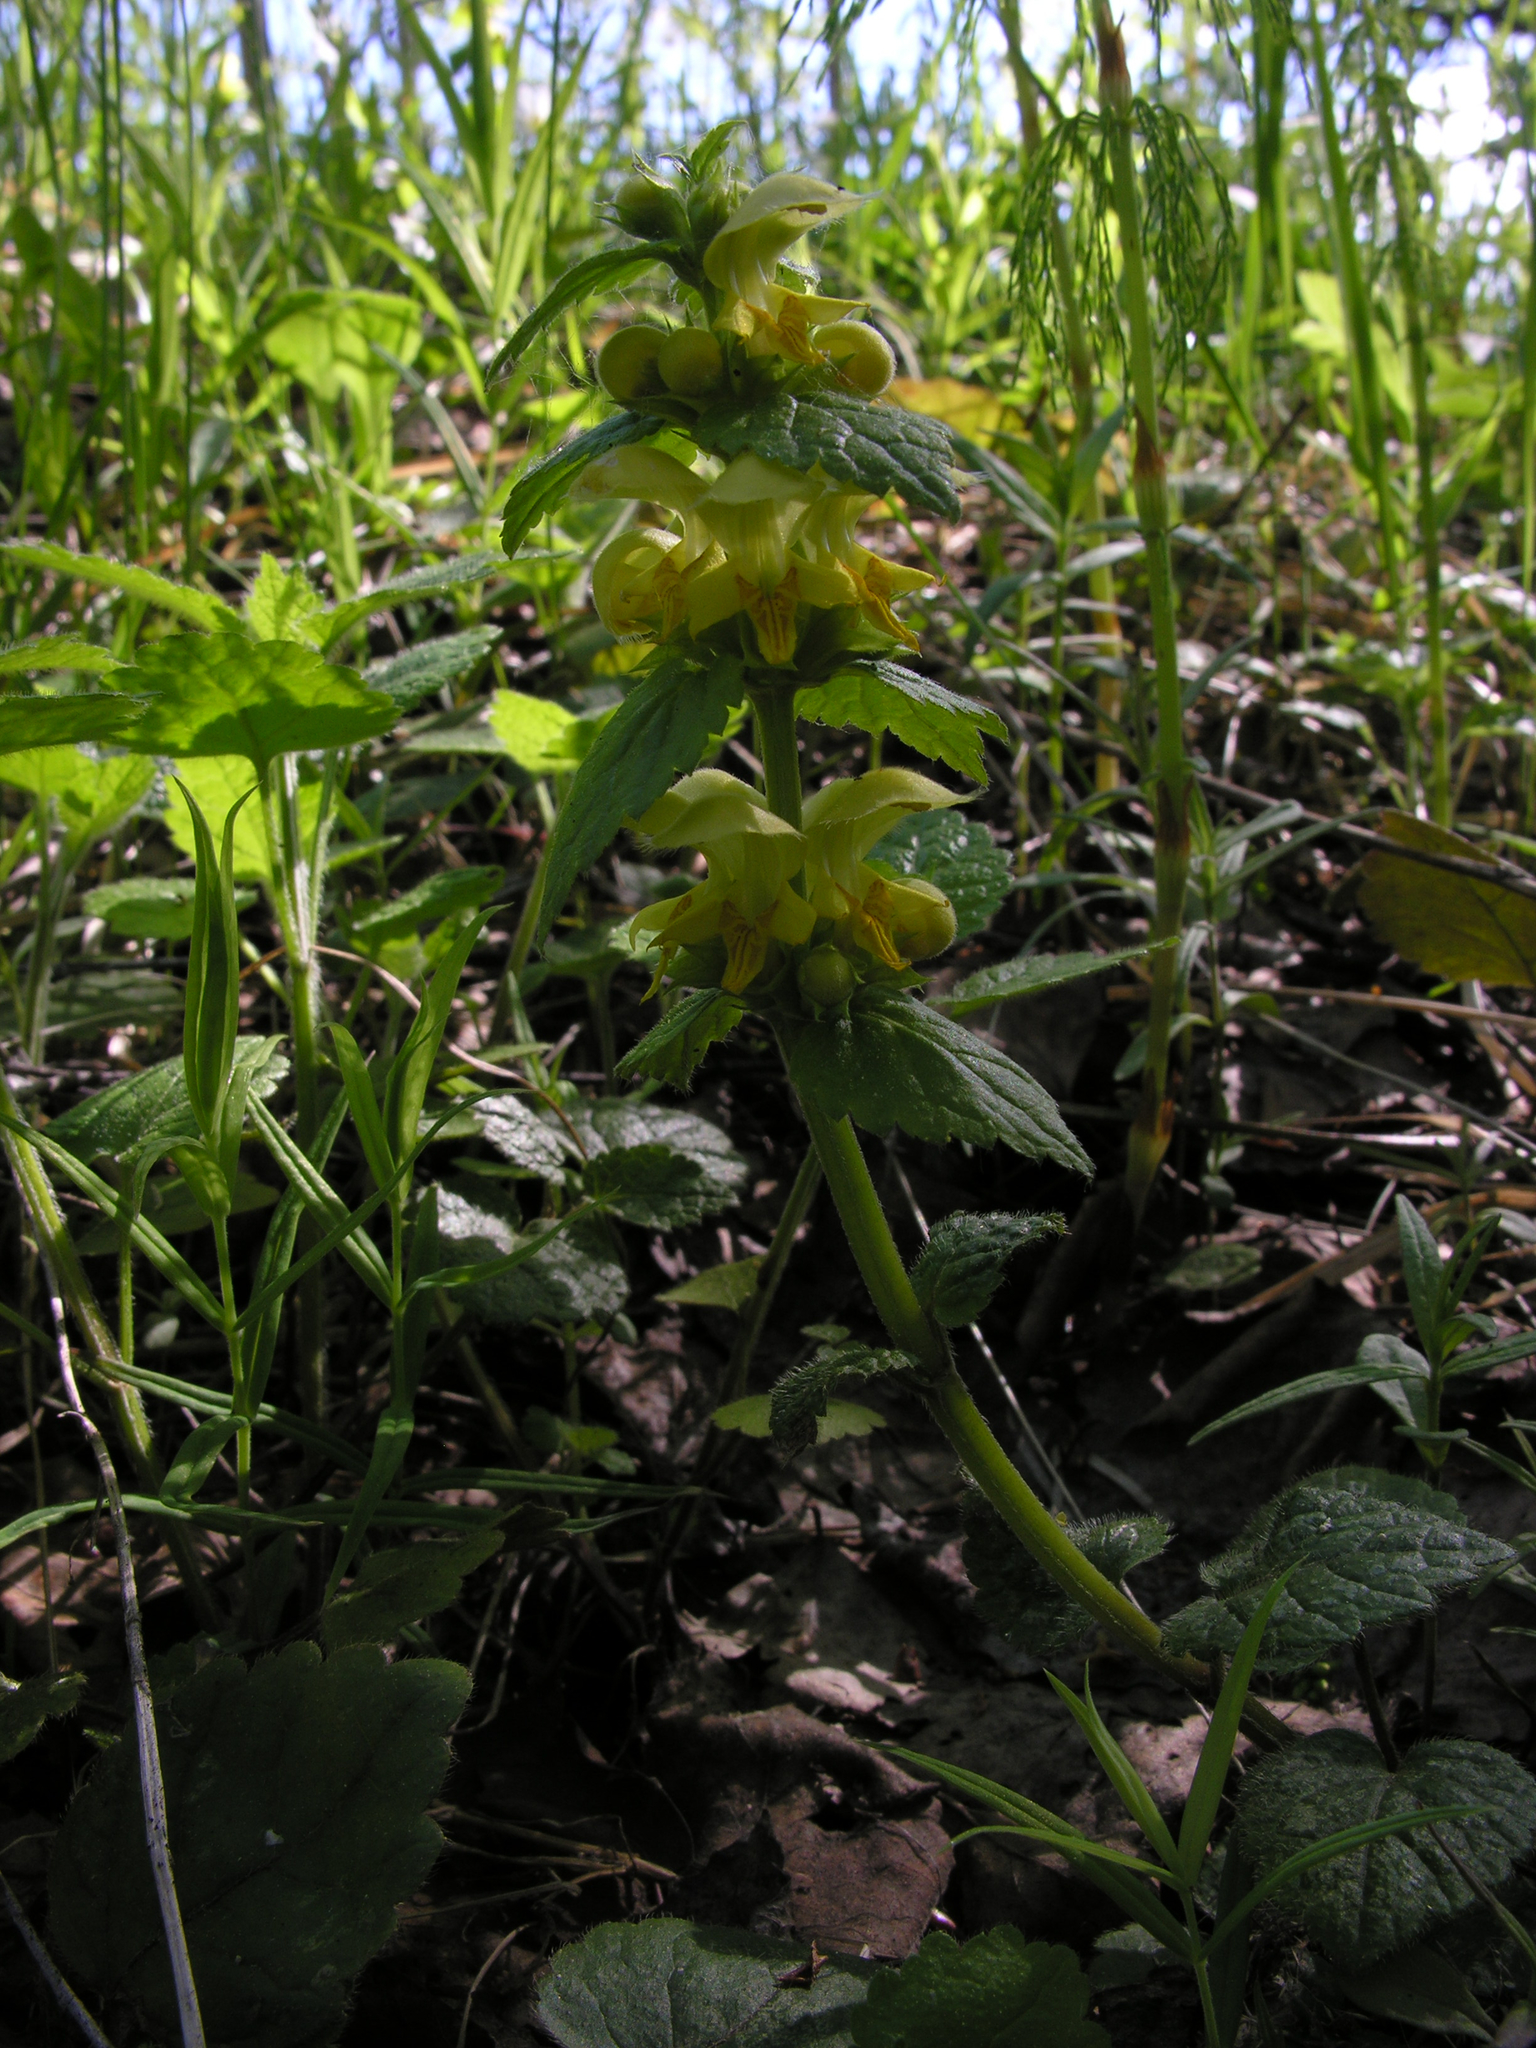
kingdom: Plantae
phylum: Tracheophyta
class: Magnoliopsida
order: Lamiales
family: Lamiaceae
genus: Lamium
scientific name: Lamium galeobdolon
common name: Yellow archangel
